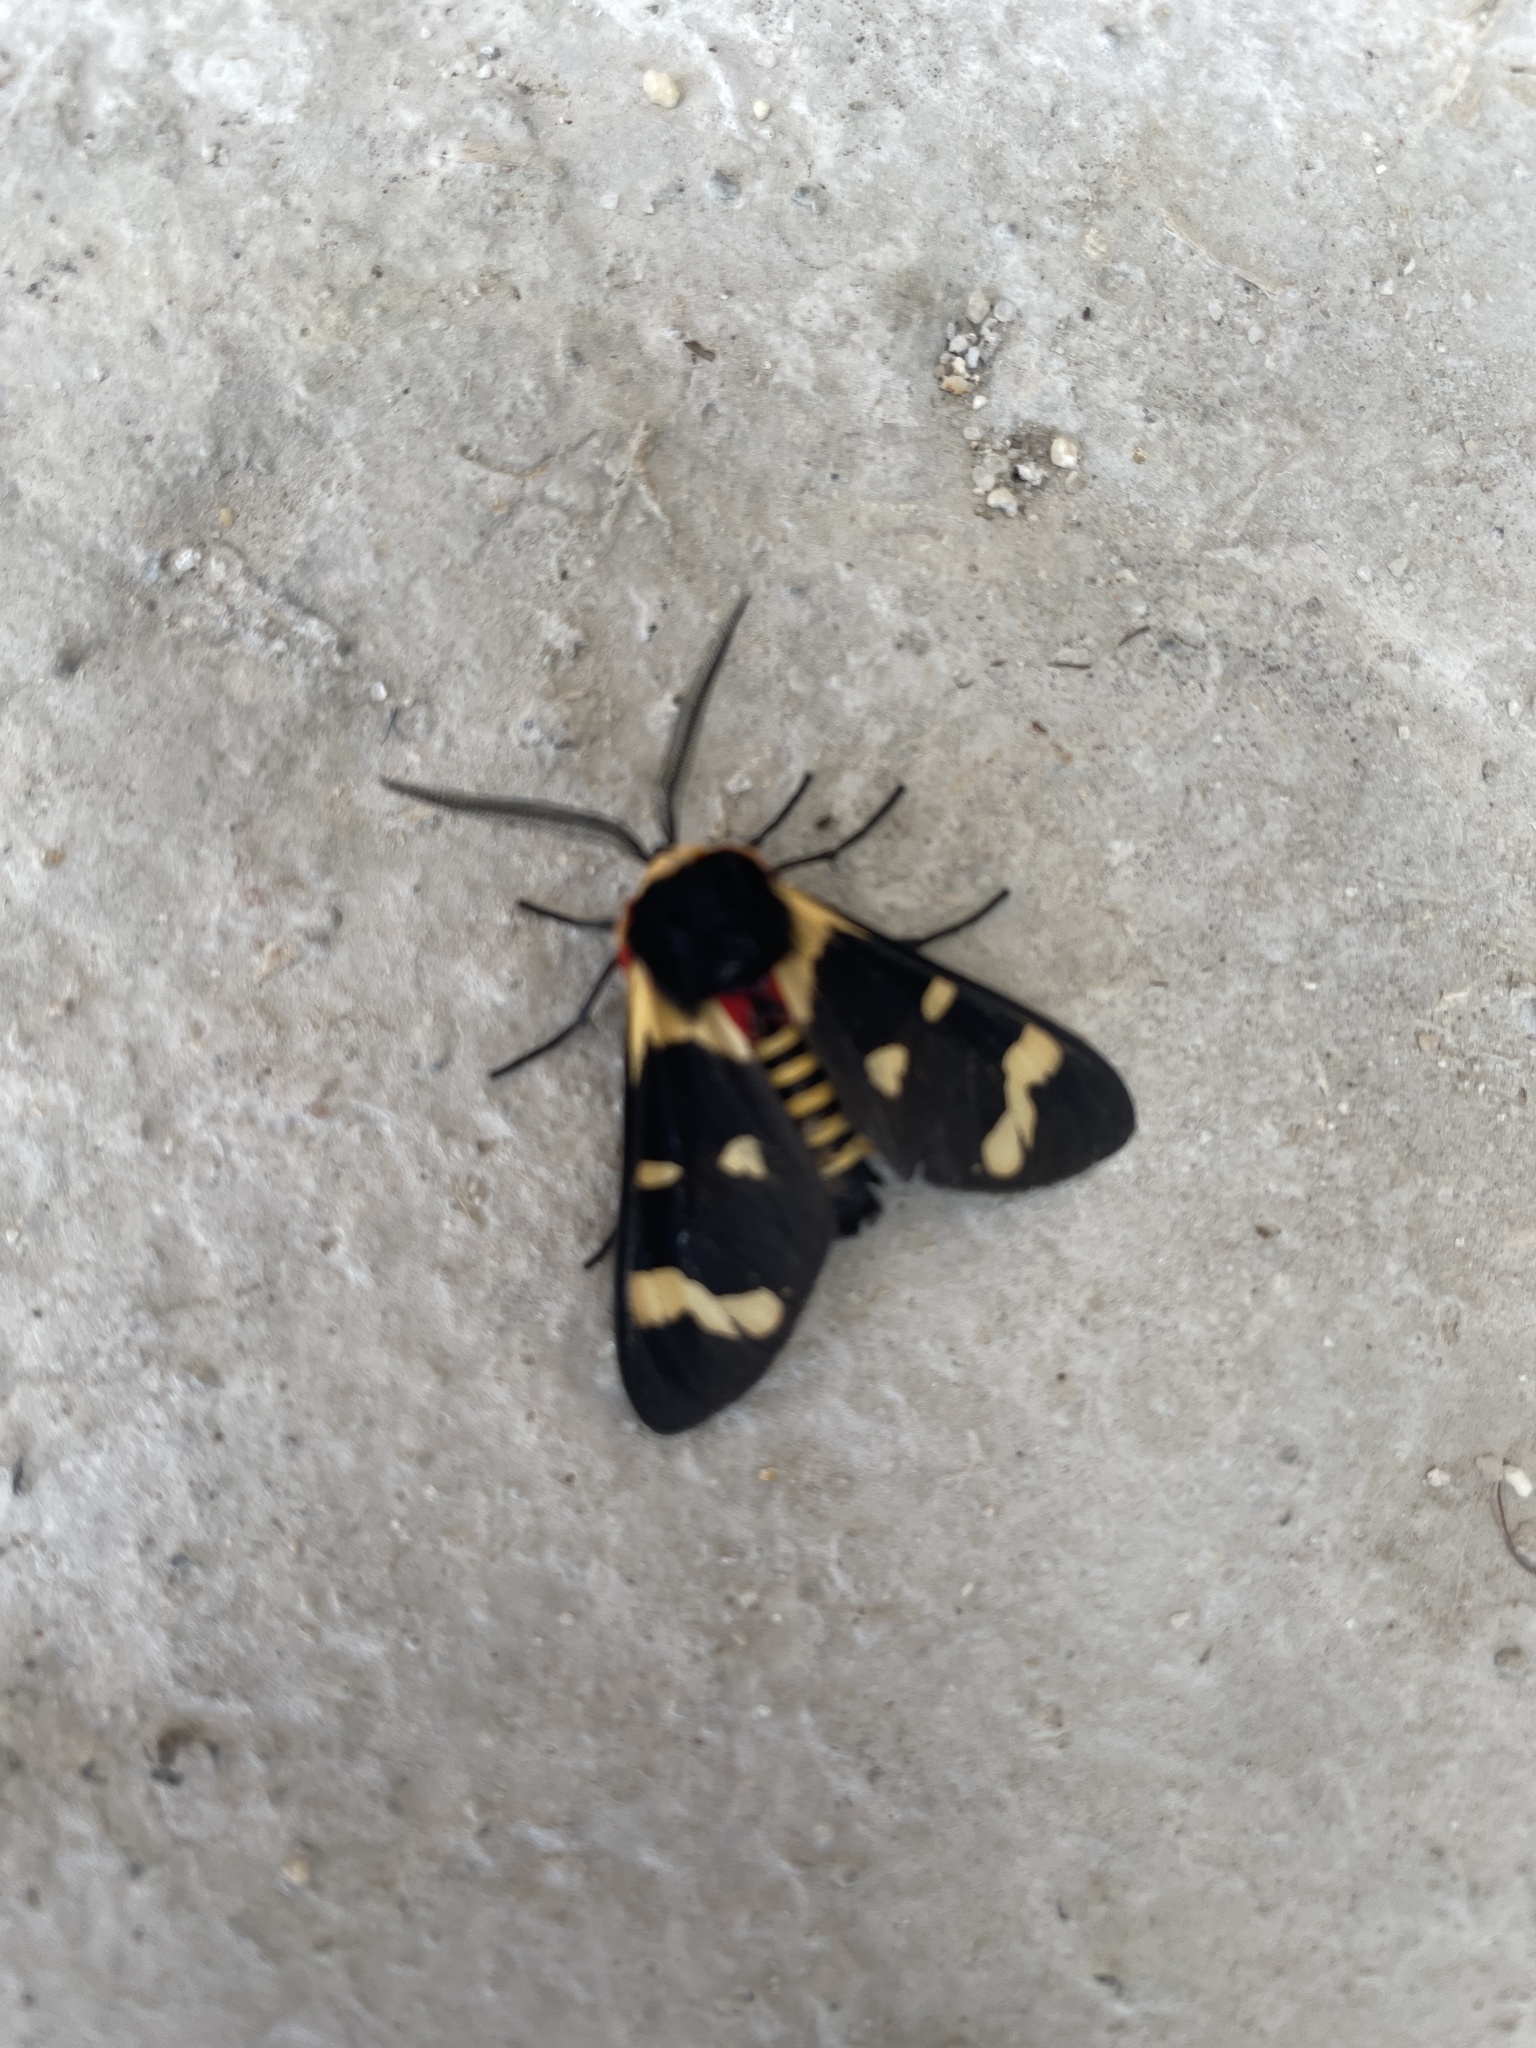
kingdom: Animalia
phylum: Arthropoda
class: Insecta
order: Lepidoptera
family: Erebidae
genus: Eurata
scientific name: Eurata hilaris
